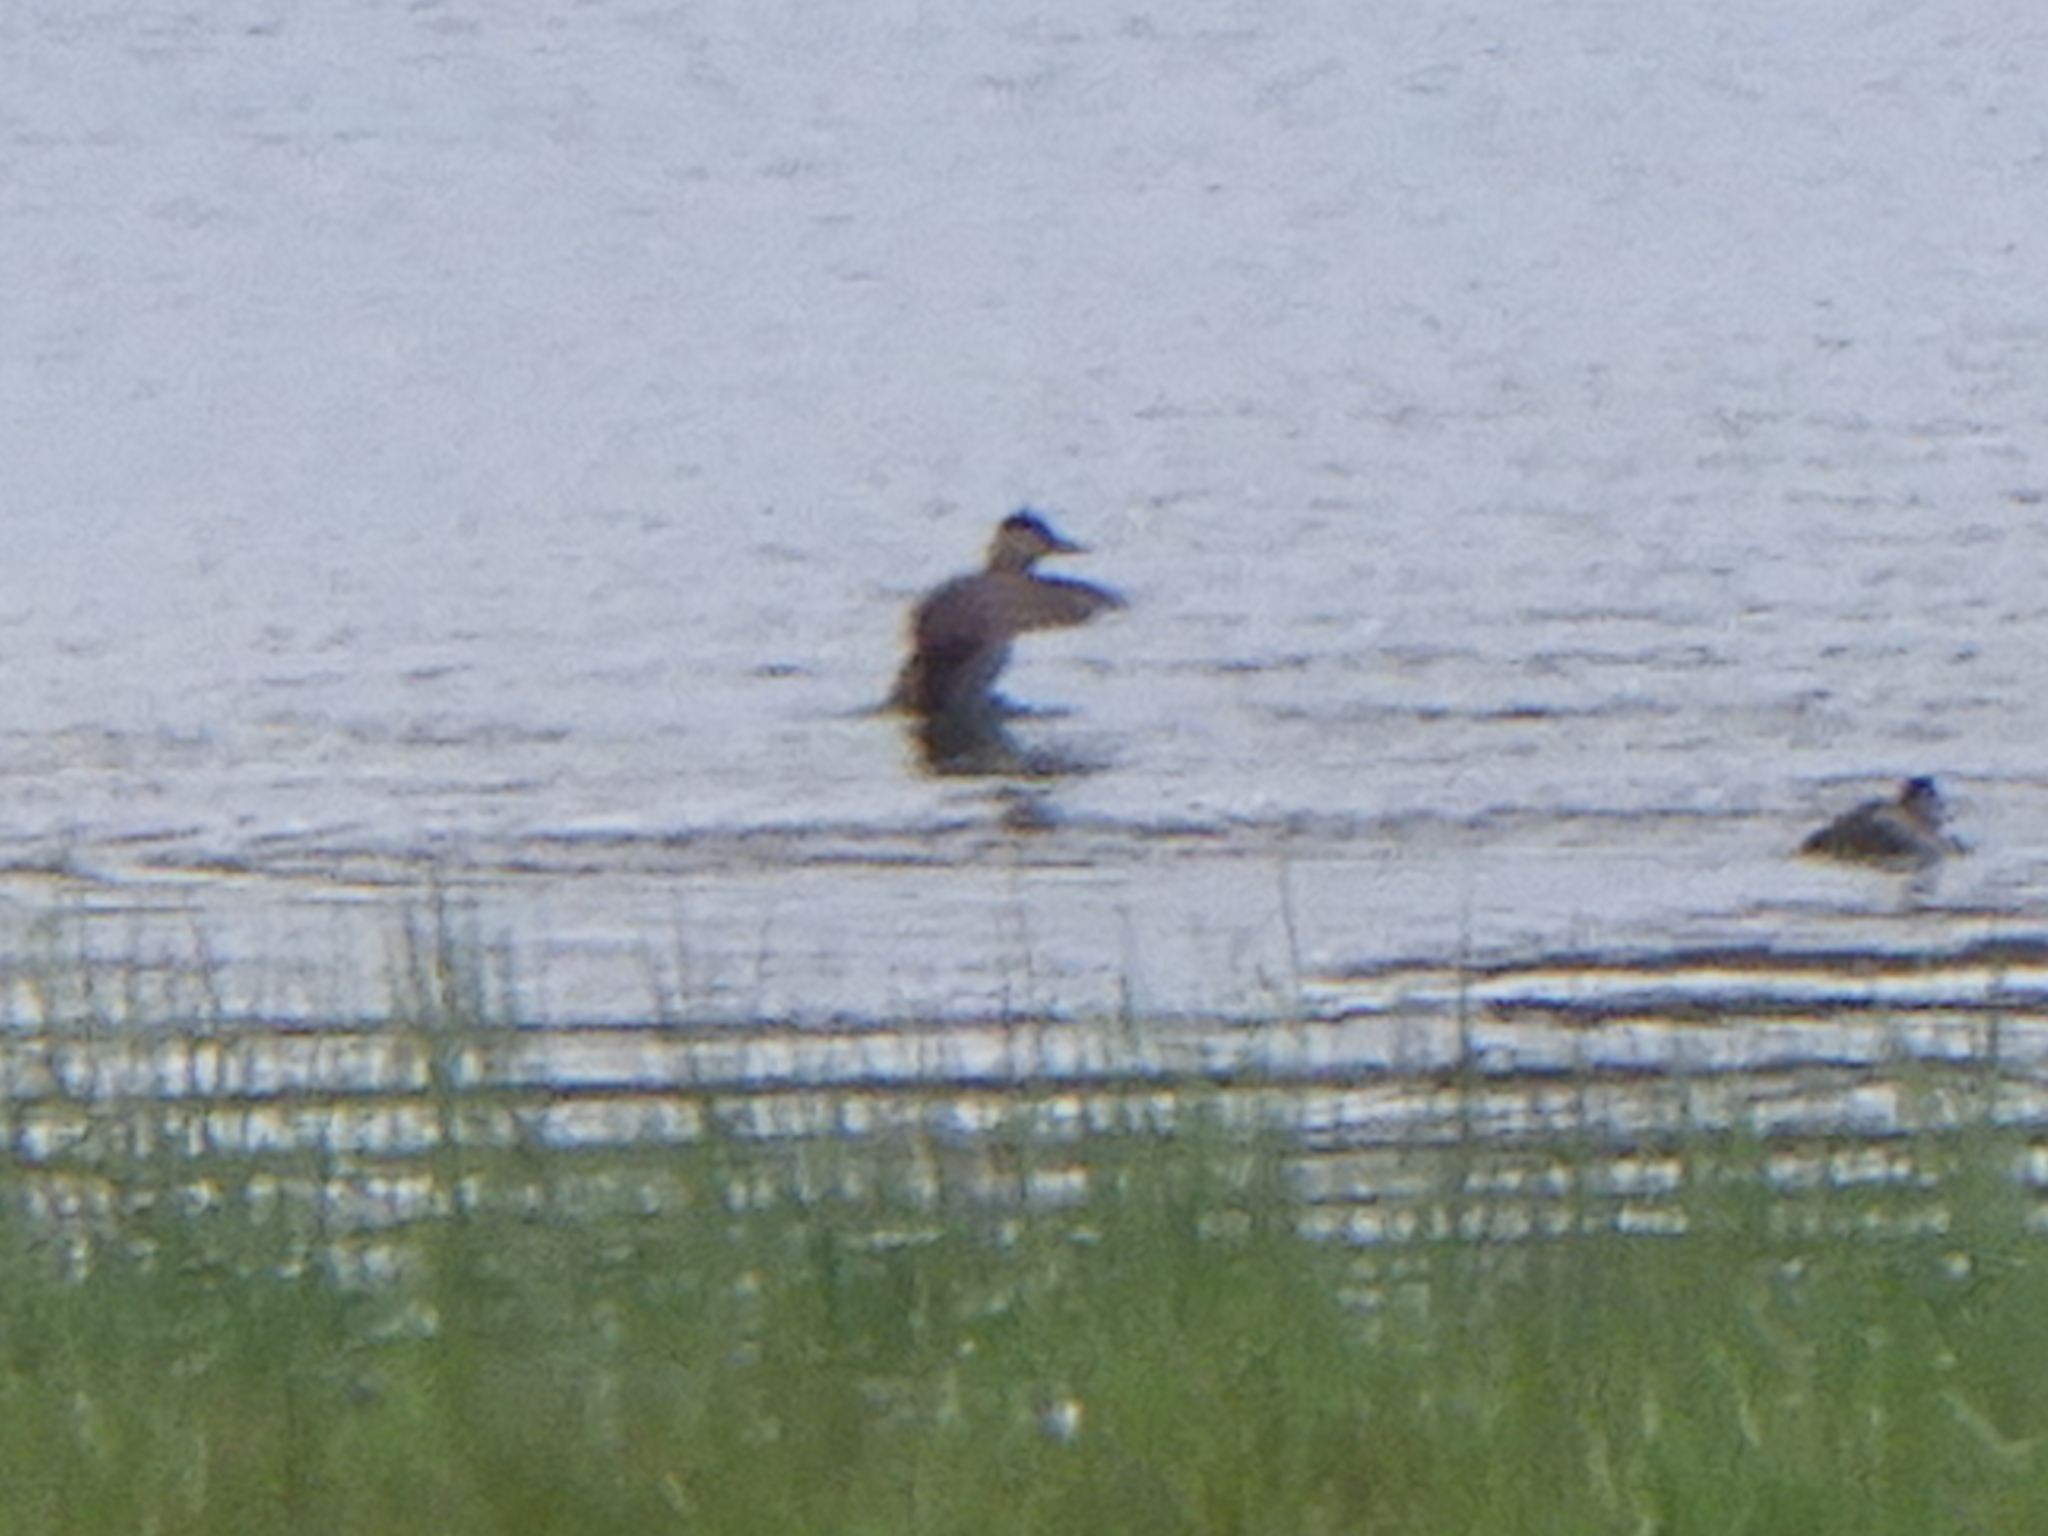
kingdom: Animalia
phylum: Chordata
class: Aves
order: Anseriformes
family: Anatidae
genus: Oxyura
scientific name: Oxyura jamaicensis
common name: Ruddy duck
